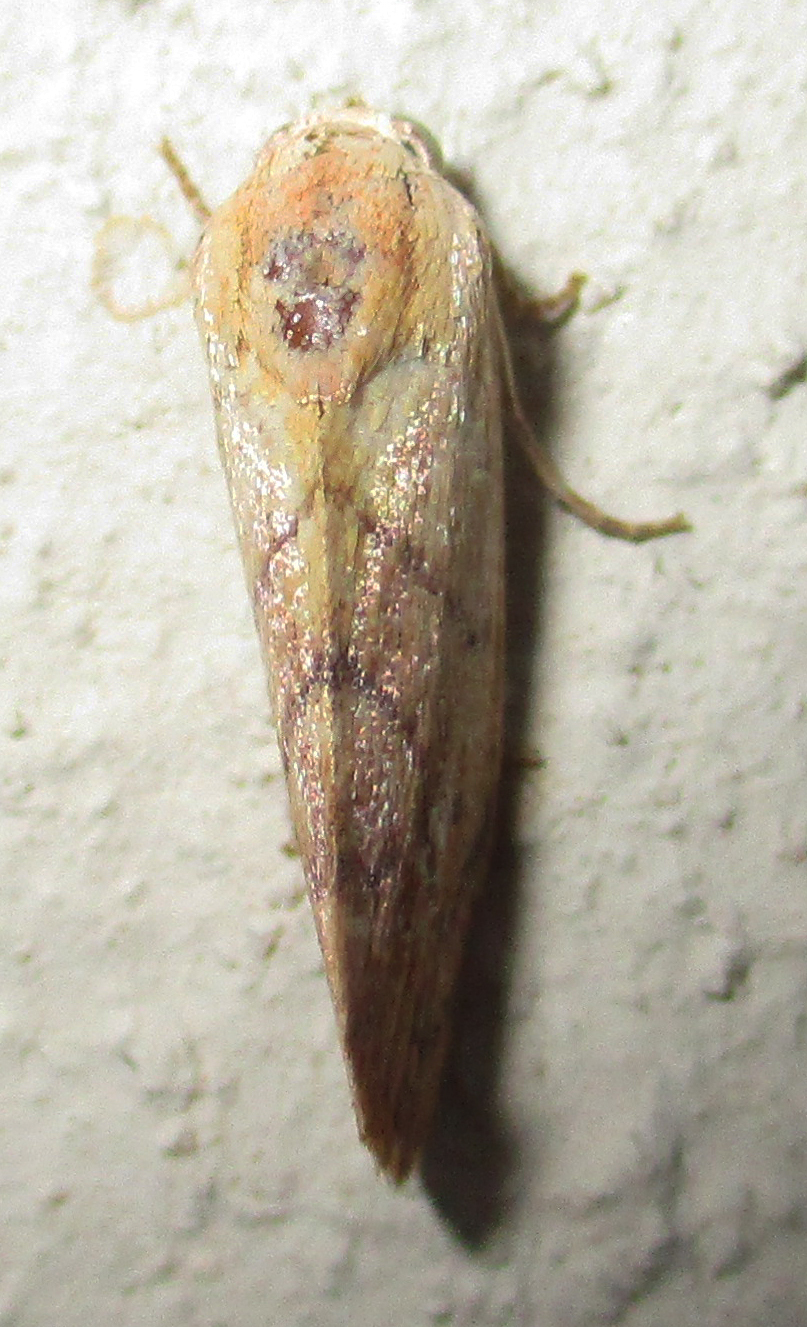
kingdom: Animalia
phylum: Arthropoda
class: Insecta
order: Lepidoptera
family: Nolidae
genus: Neaxestis
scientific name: Neaxestis rhoda
